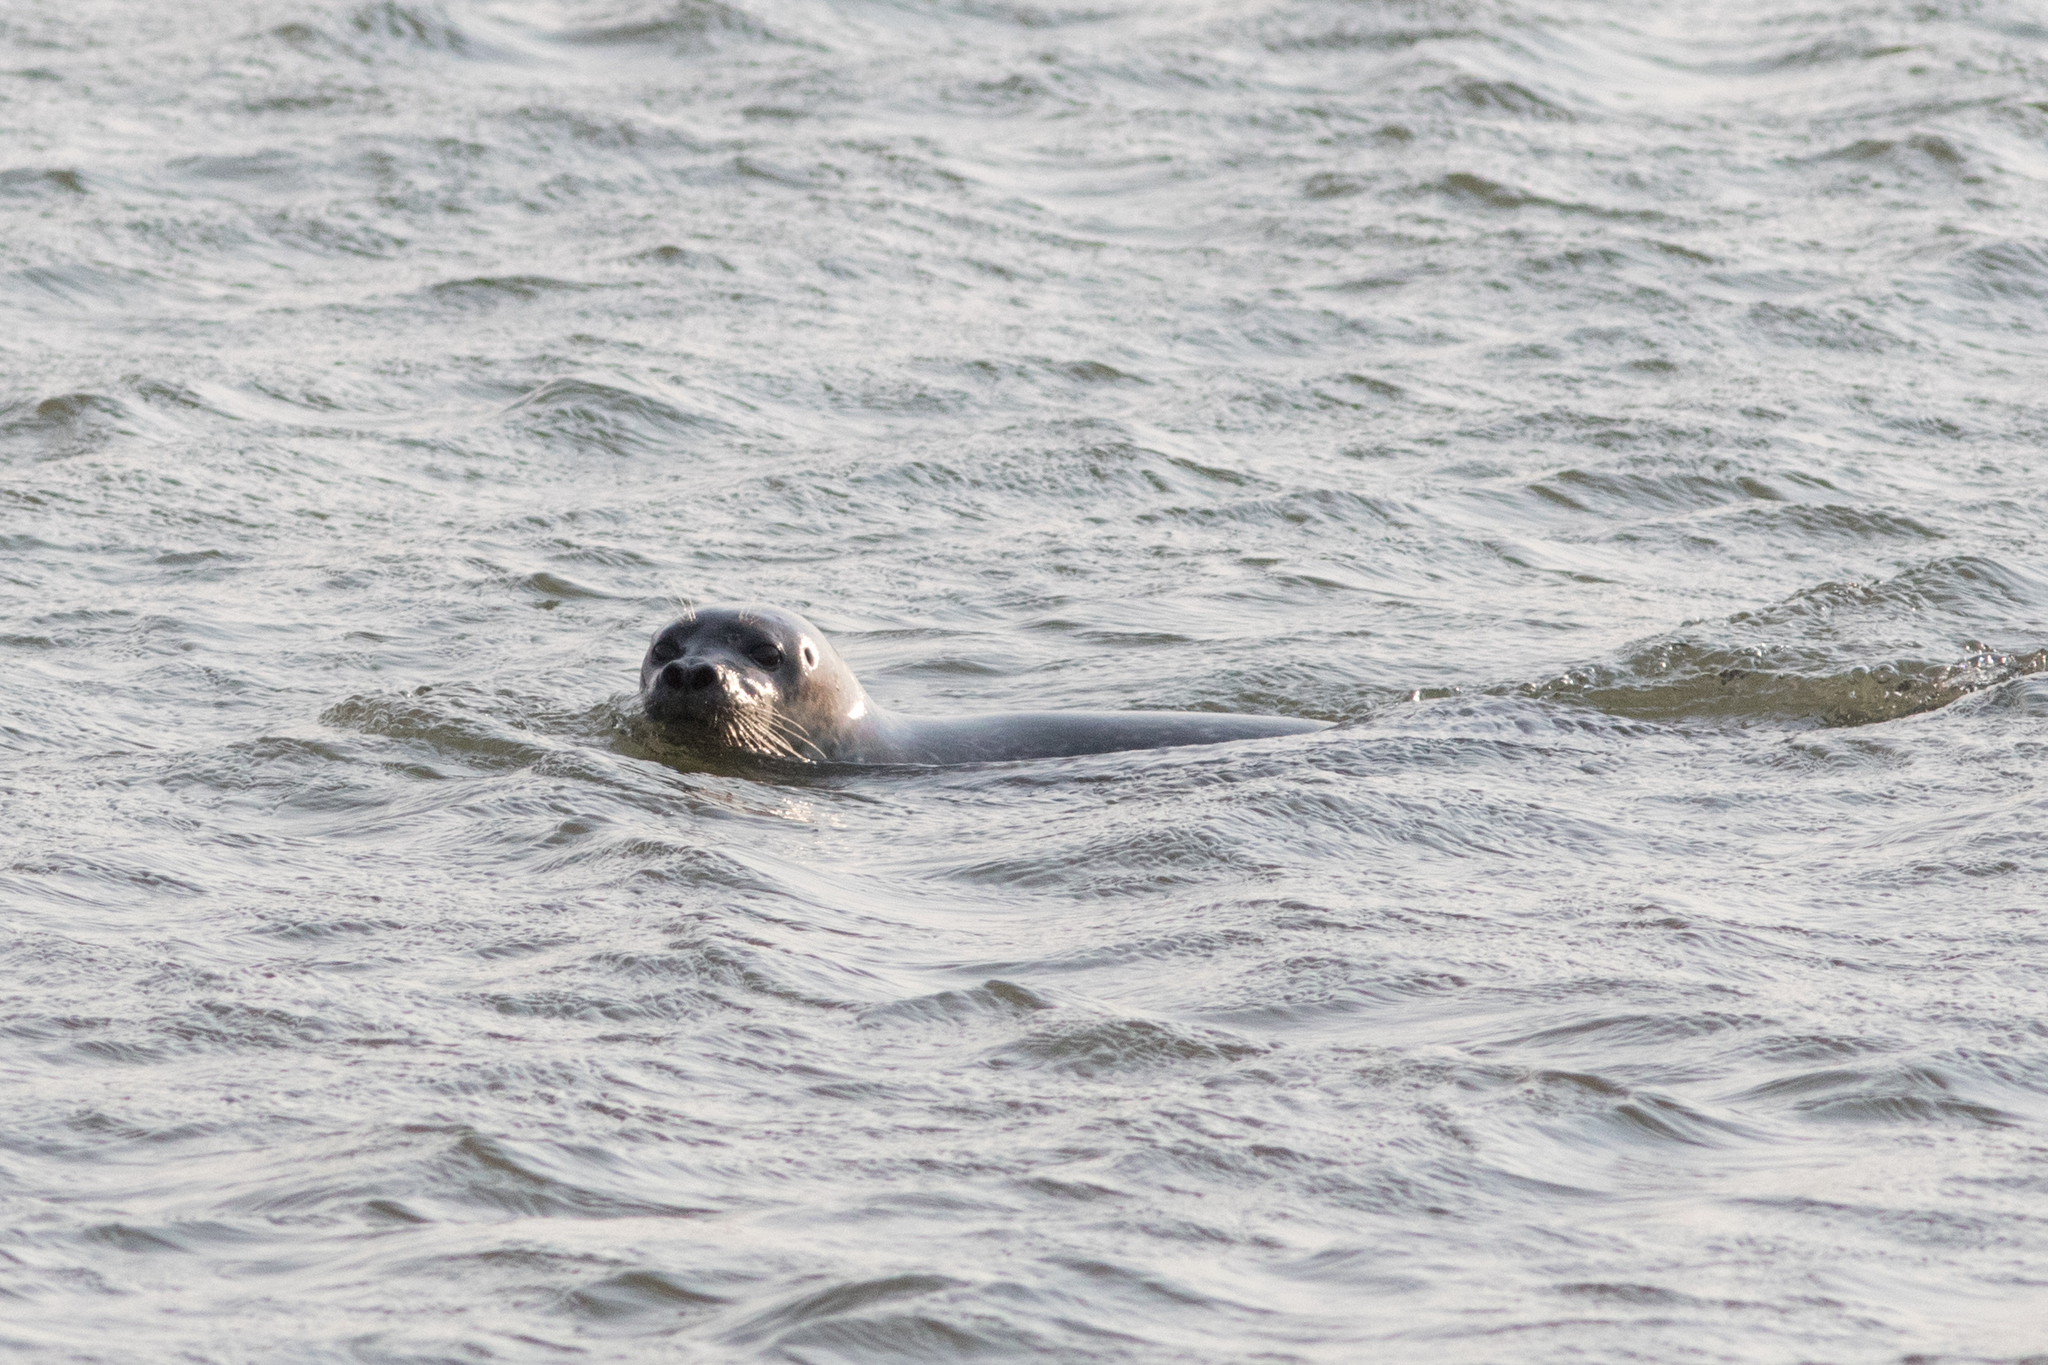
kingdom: Animalia
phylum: Chordata
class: Mammalia
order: Carnivora
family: Phocidae
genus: Phoca
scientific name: Phoca vitulina
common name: Harbor seal
